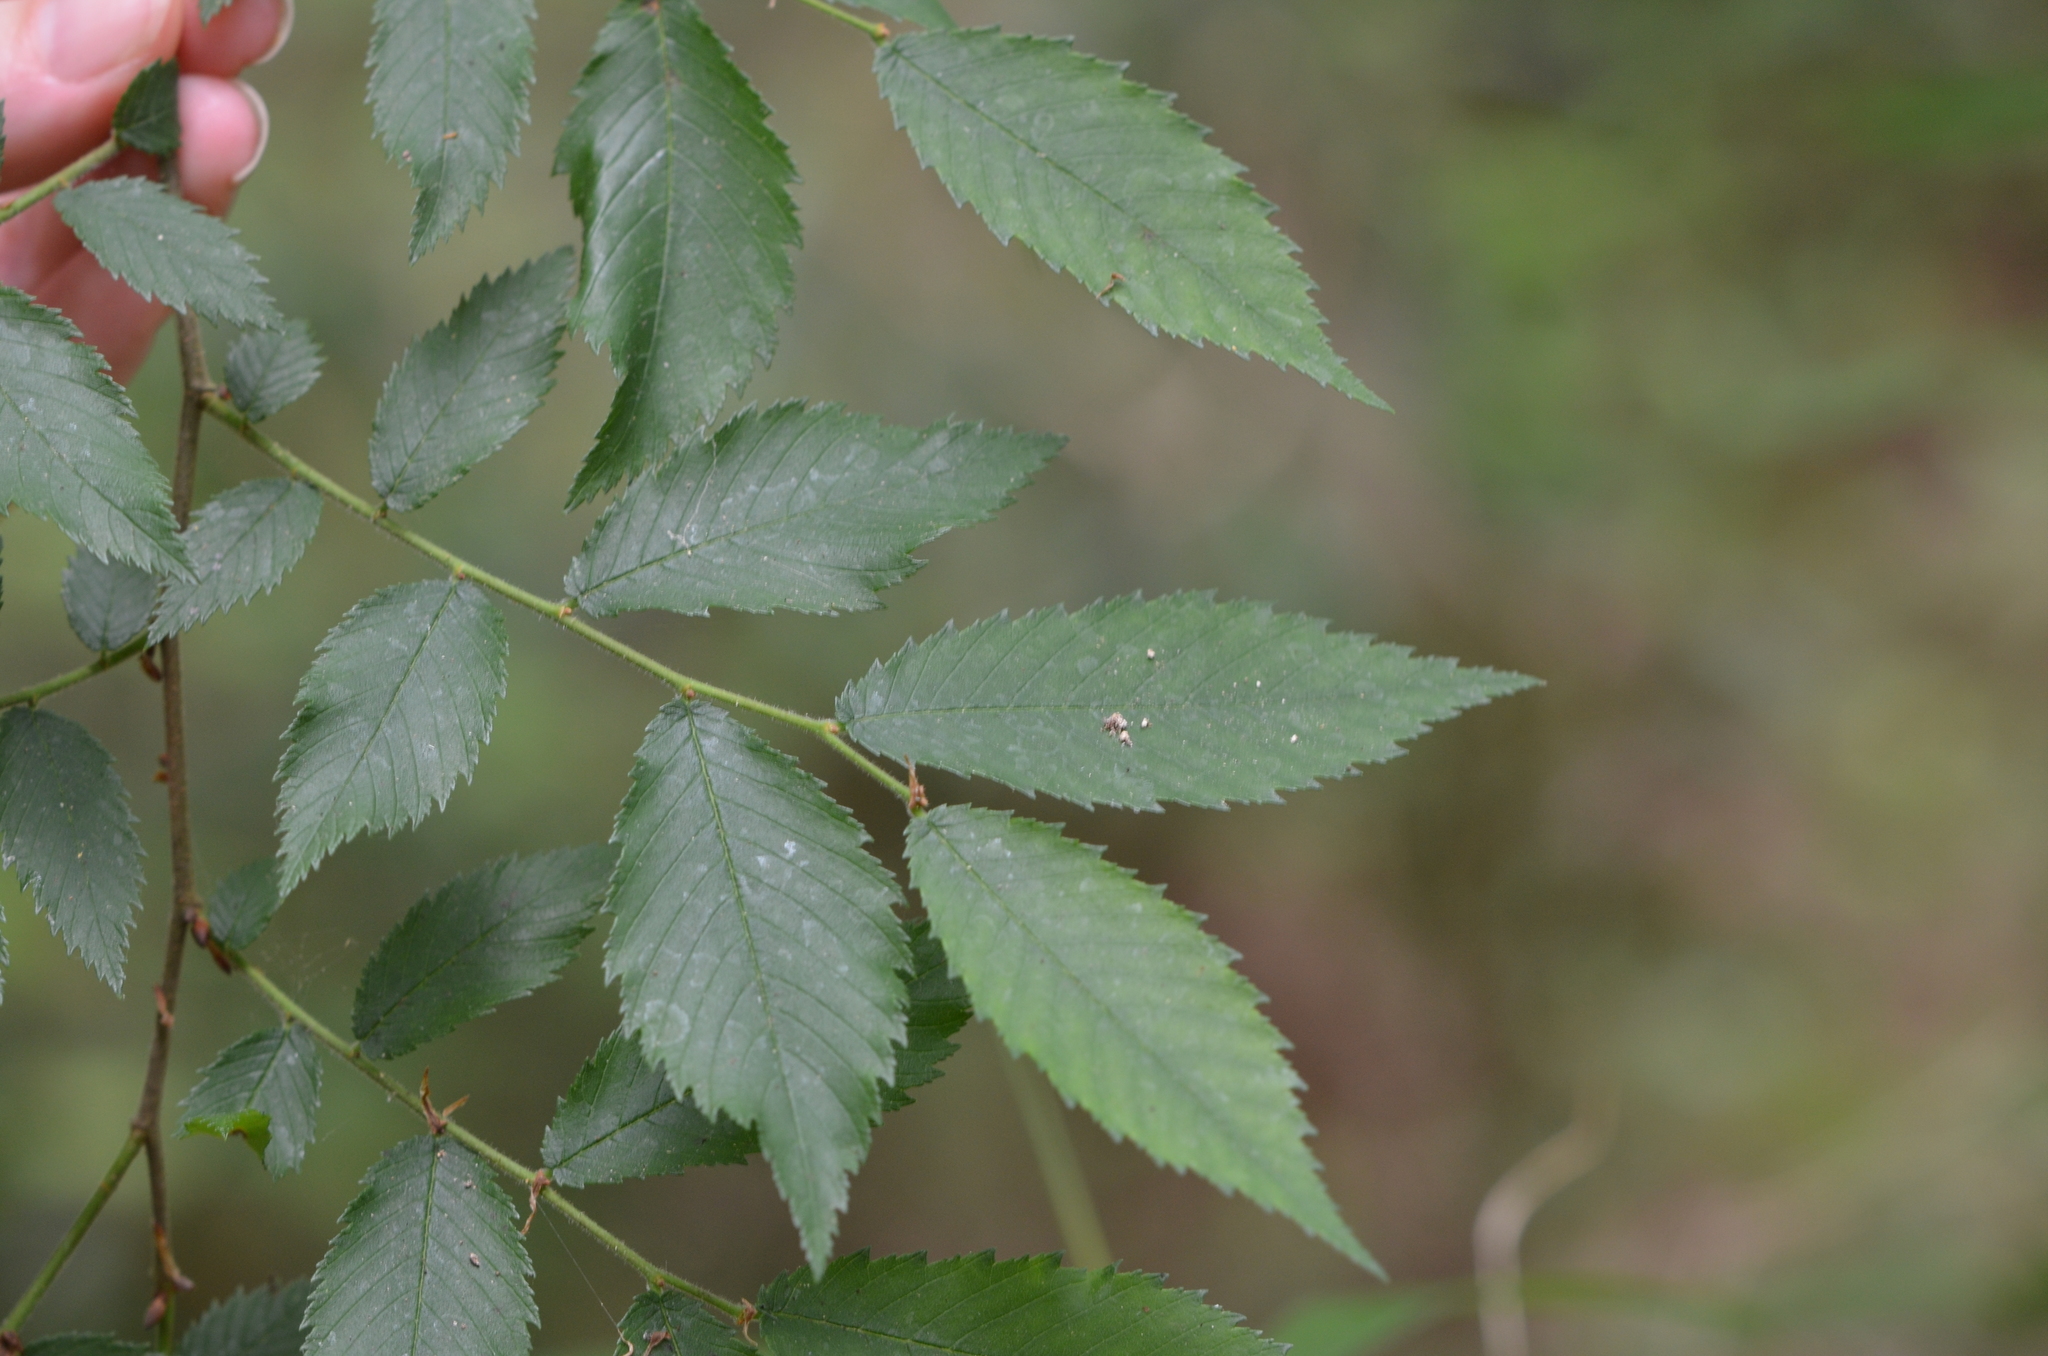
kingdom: Plantae
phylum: Tracheophyta
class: Magnoliopsida
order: Rosales
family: Ulmaceae
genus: Ulmus
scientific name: Ulmus alata
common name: Winged elm
